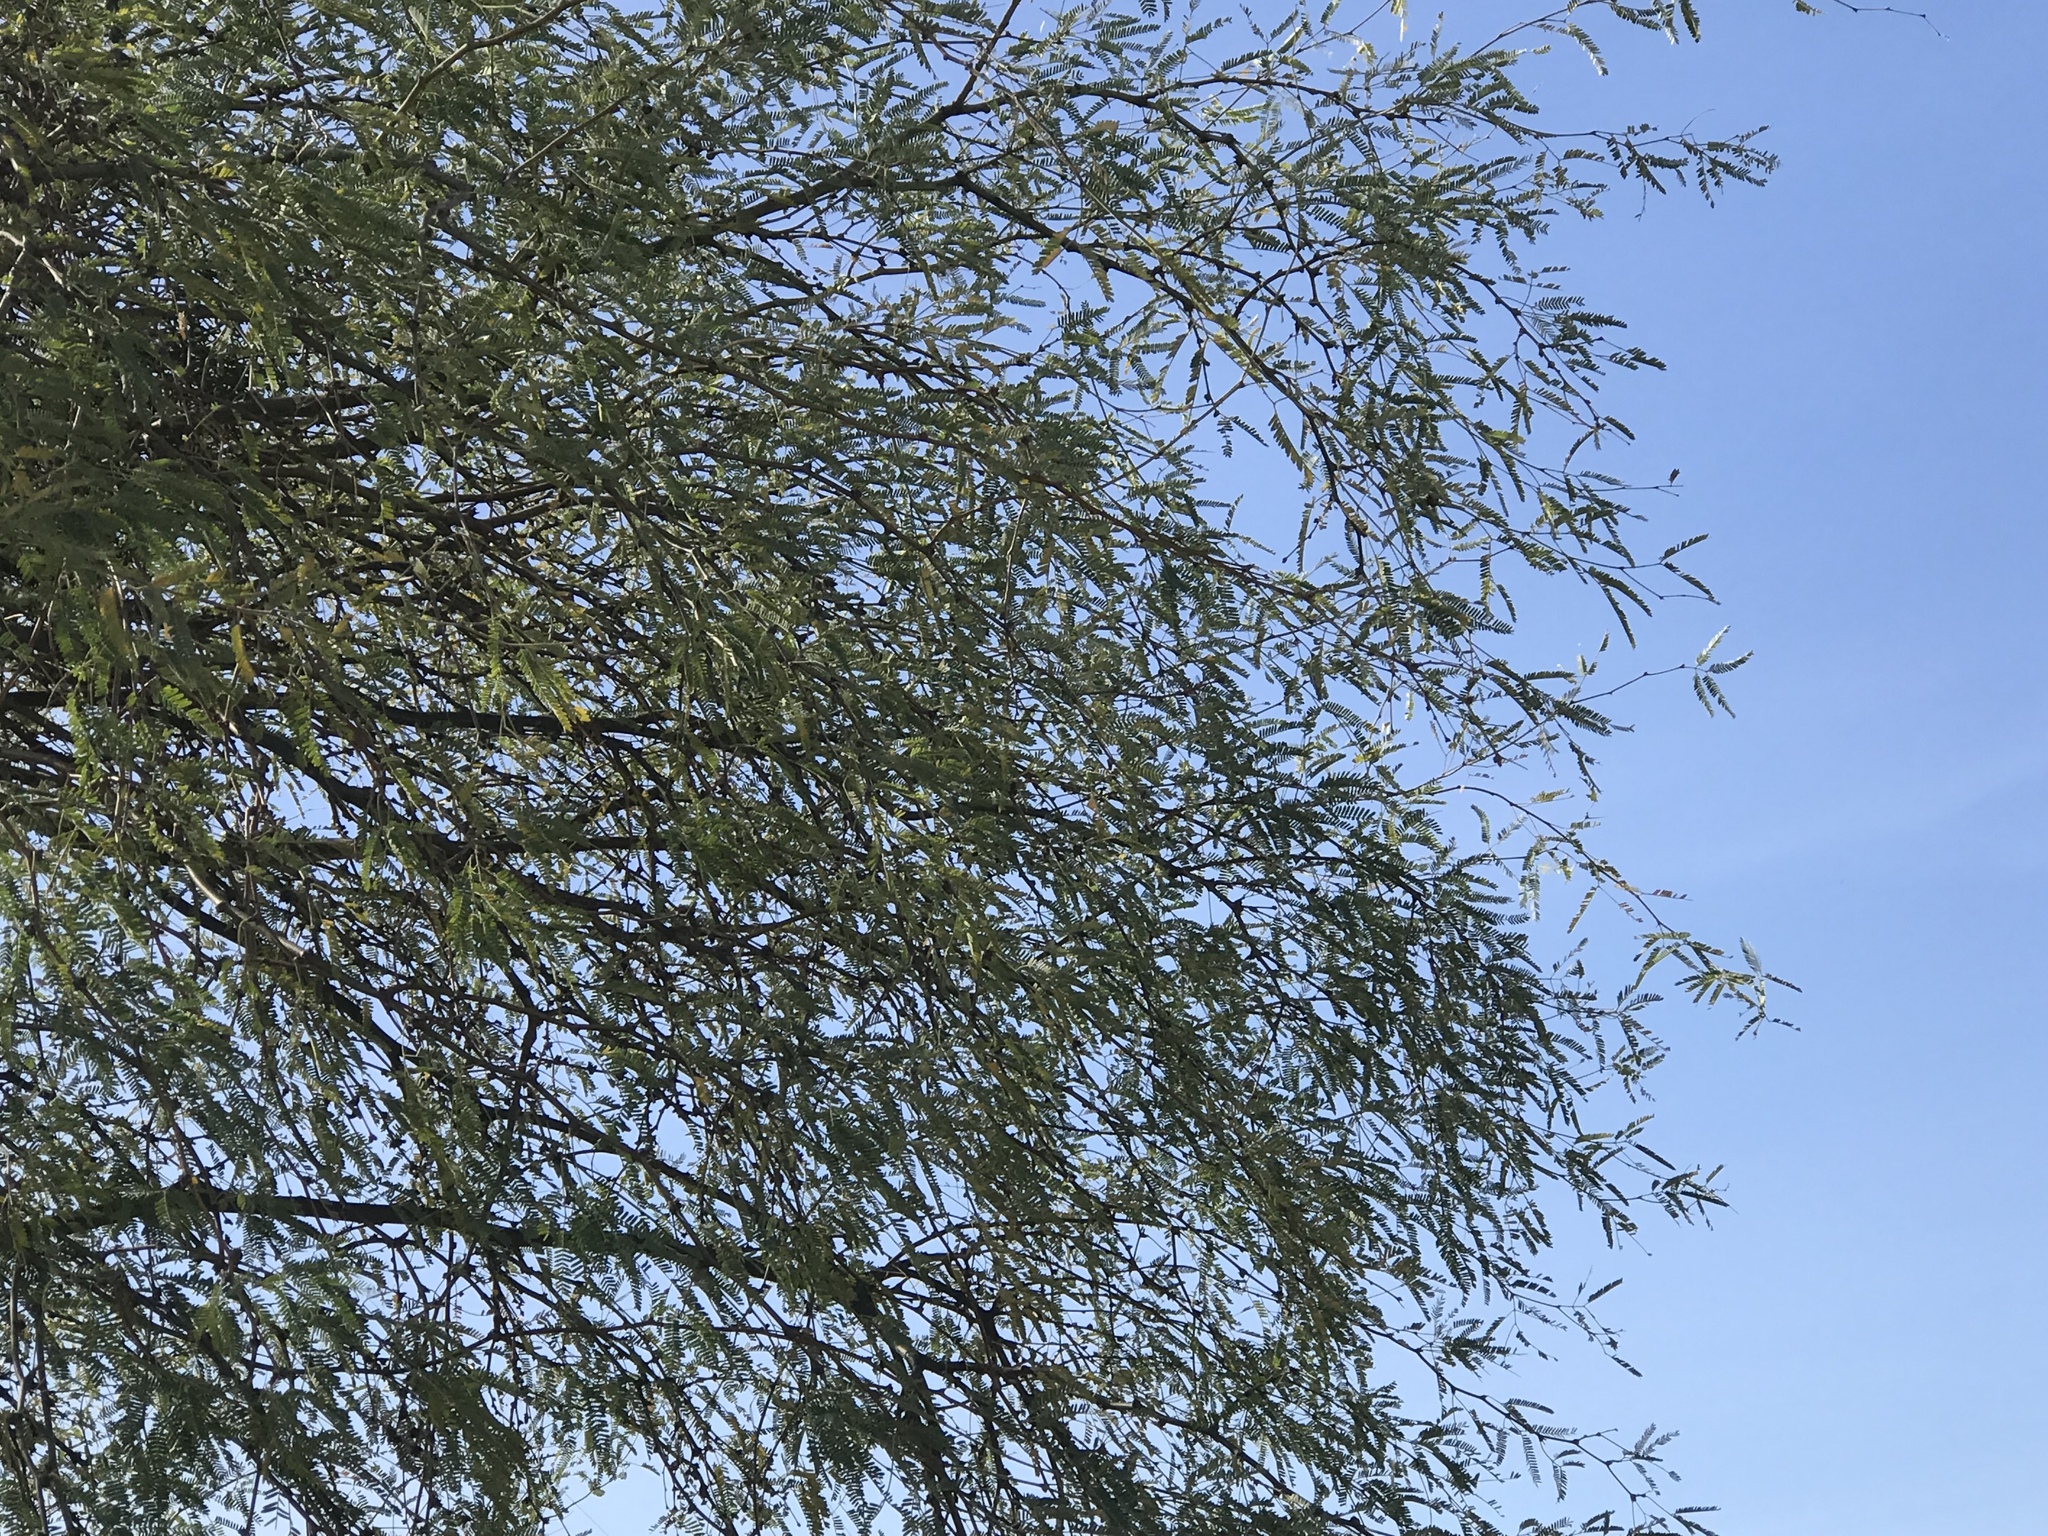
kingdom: Plantae
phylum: Tracheophyta
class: Magnoliopsida
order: Fabales
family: Fabaceae
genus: Prosopis
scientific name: Prosopis velutina
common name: Velvet mesquite
